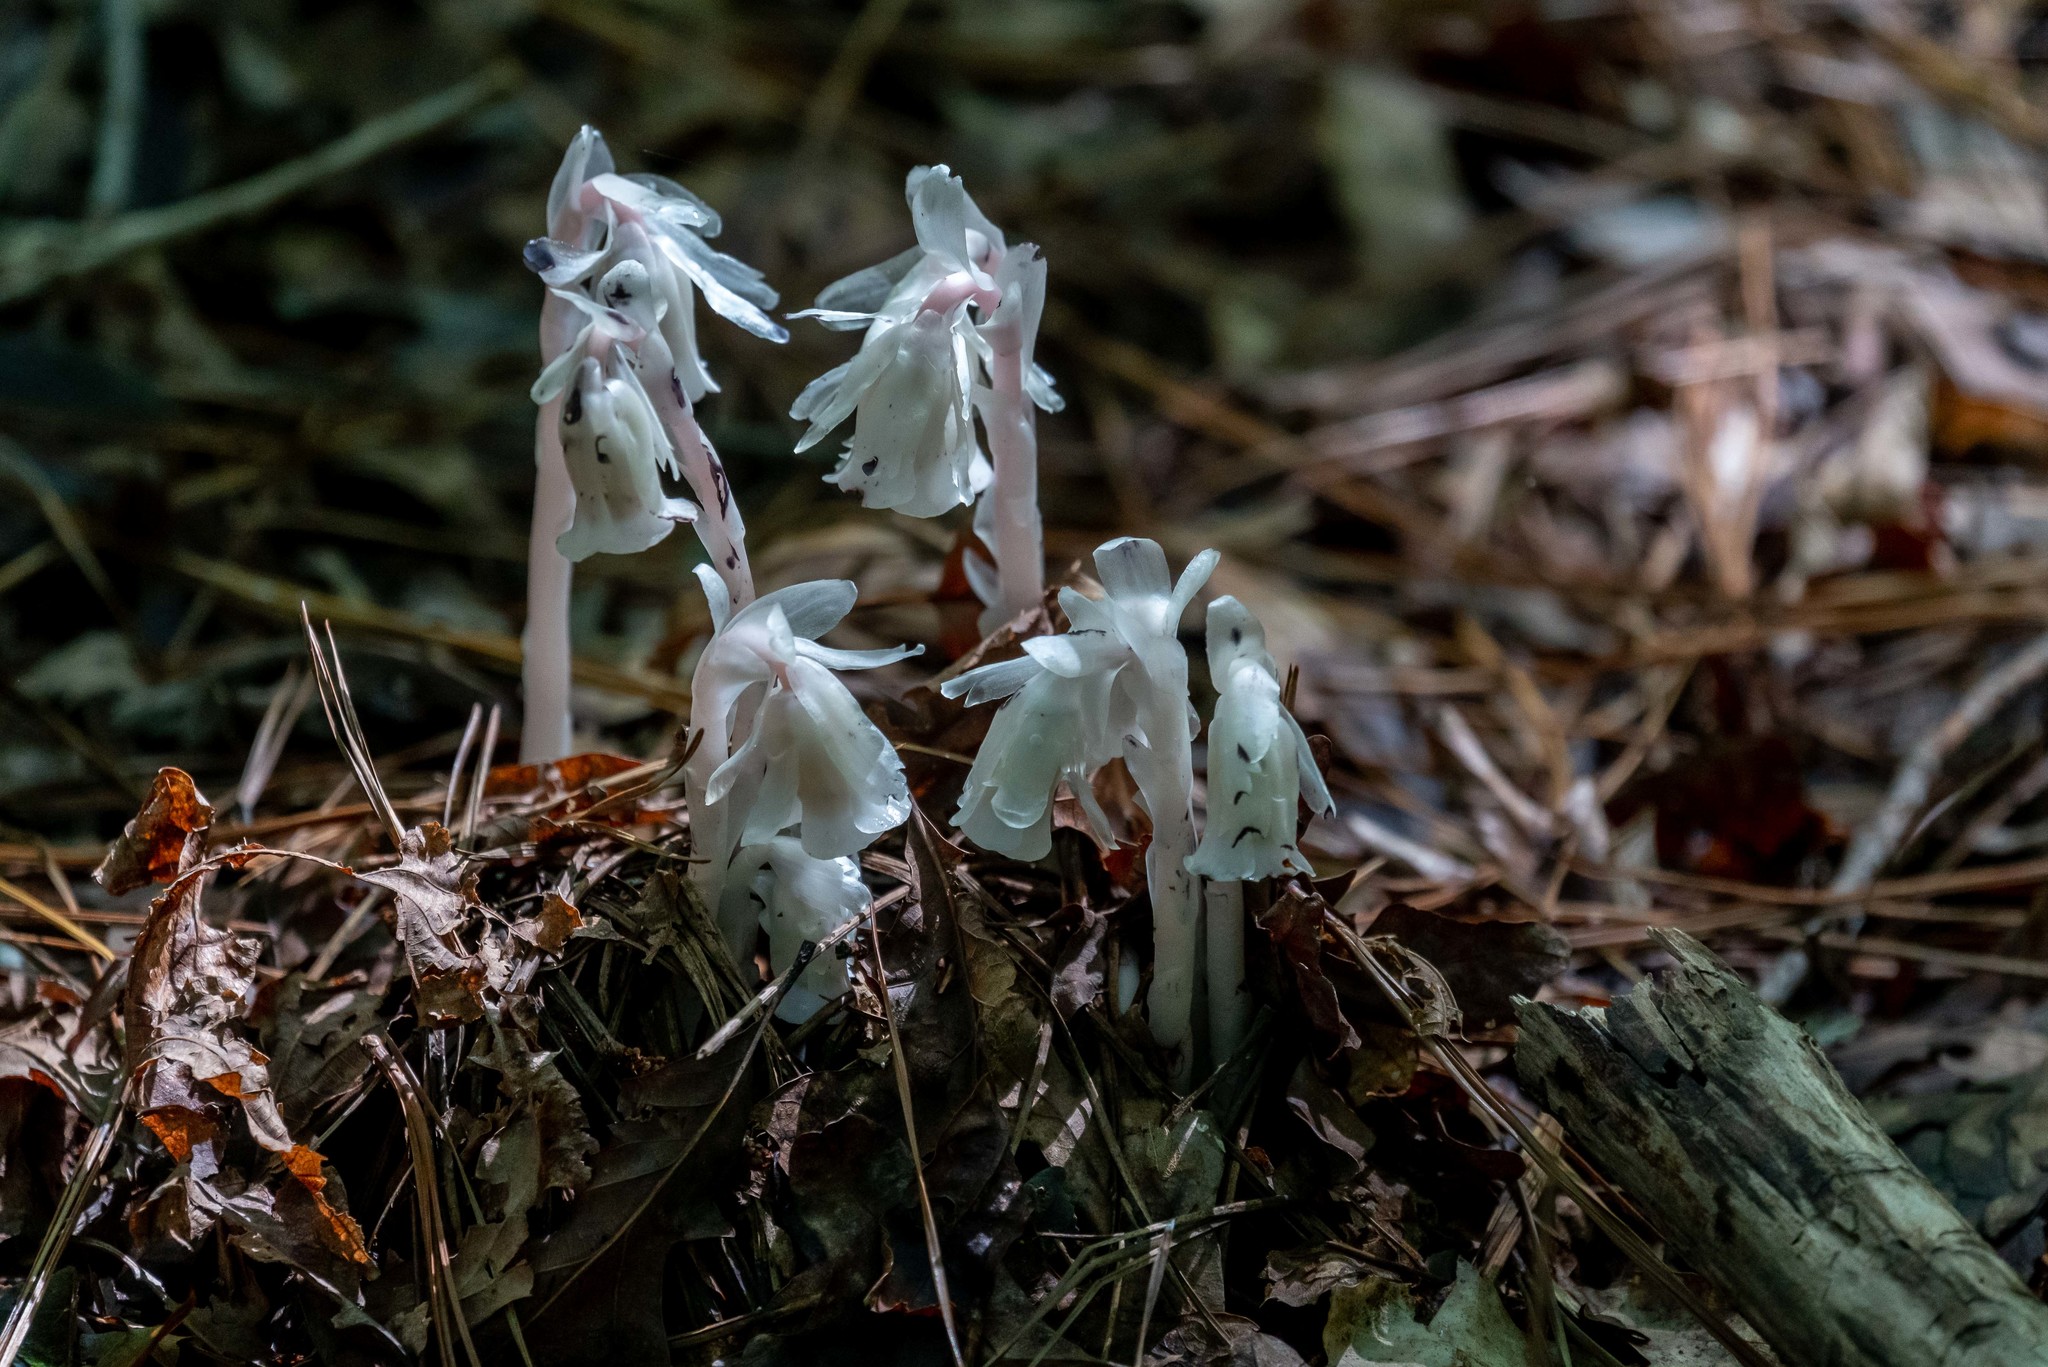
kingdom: Plantae
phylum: Tracheophyta
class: Magnoliopsida
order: Ericales
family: Ericaceae
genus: Monotropa
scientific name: Monotropa uniflora
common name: Convulsion root
